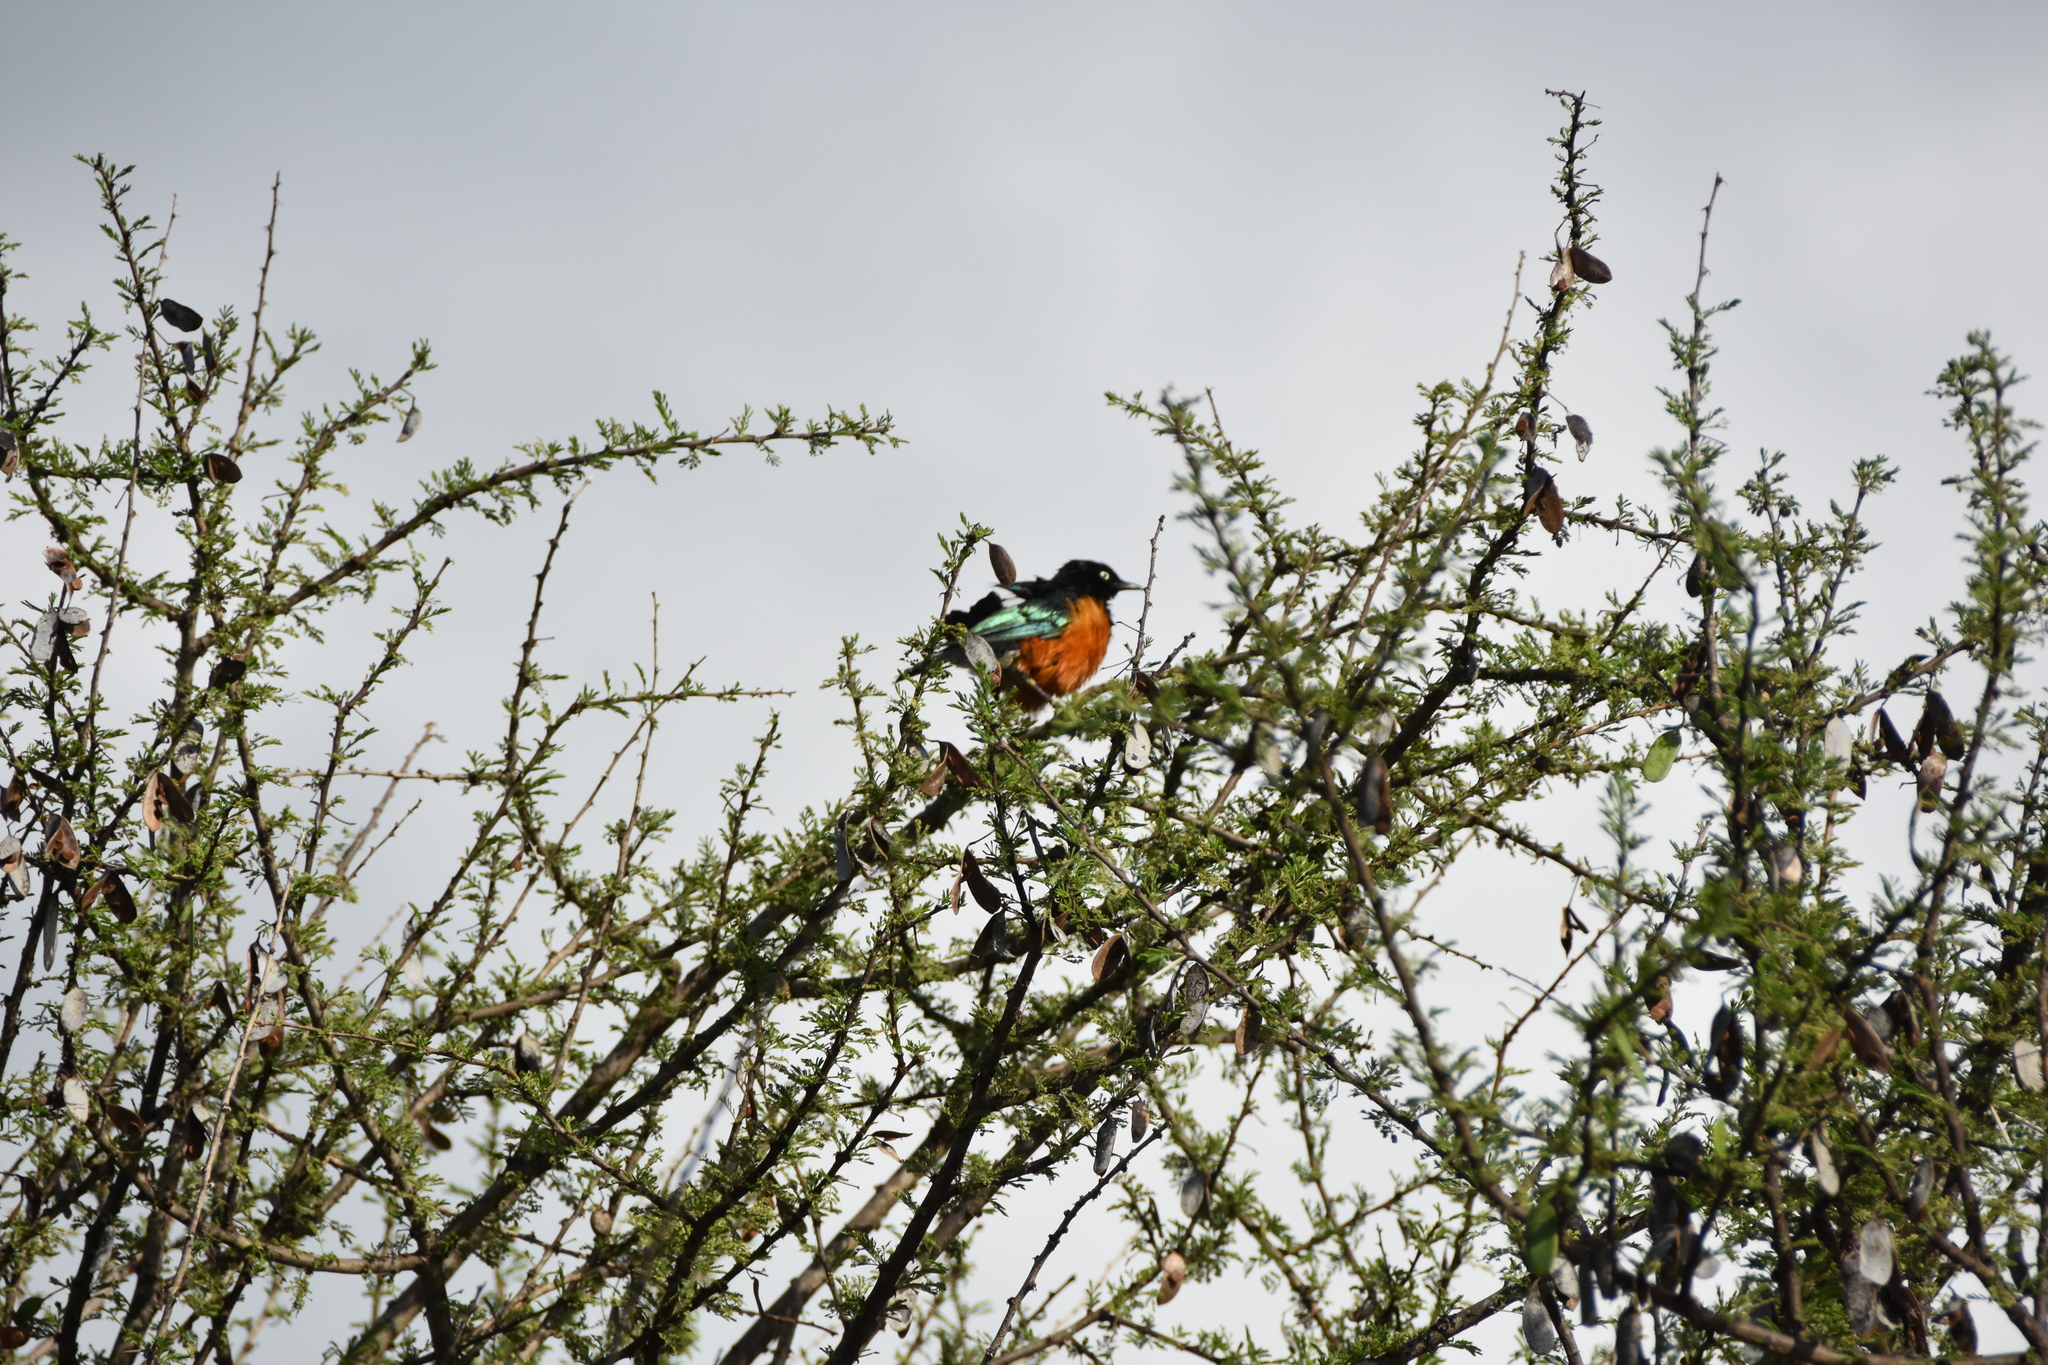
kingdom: Animalia
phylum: Chordata
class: Aves
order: Passeriformes
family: Sturnidae
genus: Lamprotornis
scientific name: Lamprotornis superbus
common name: Superb starling
